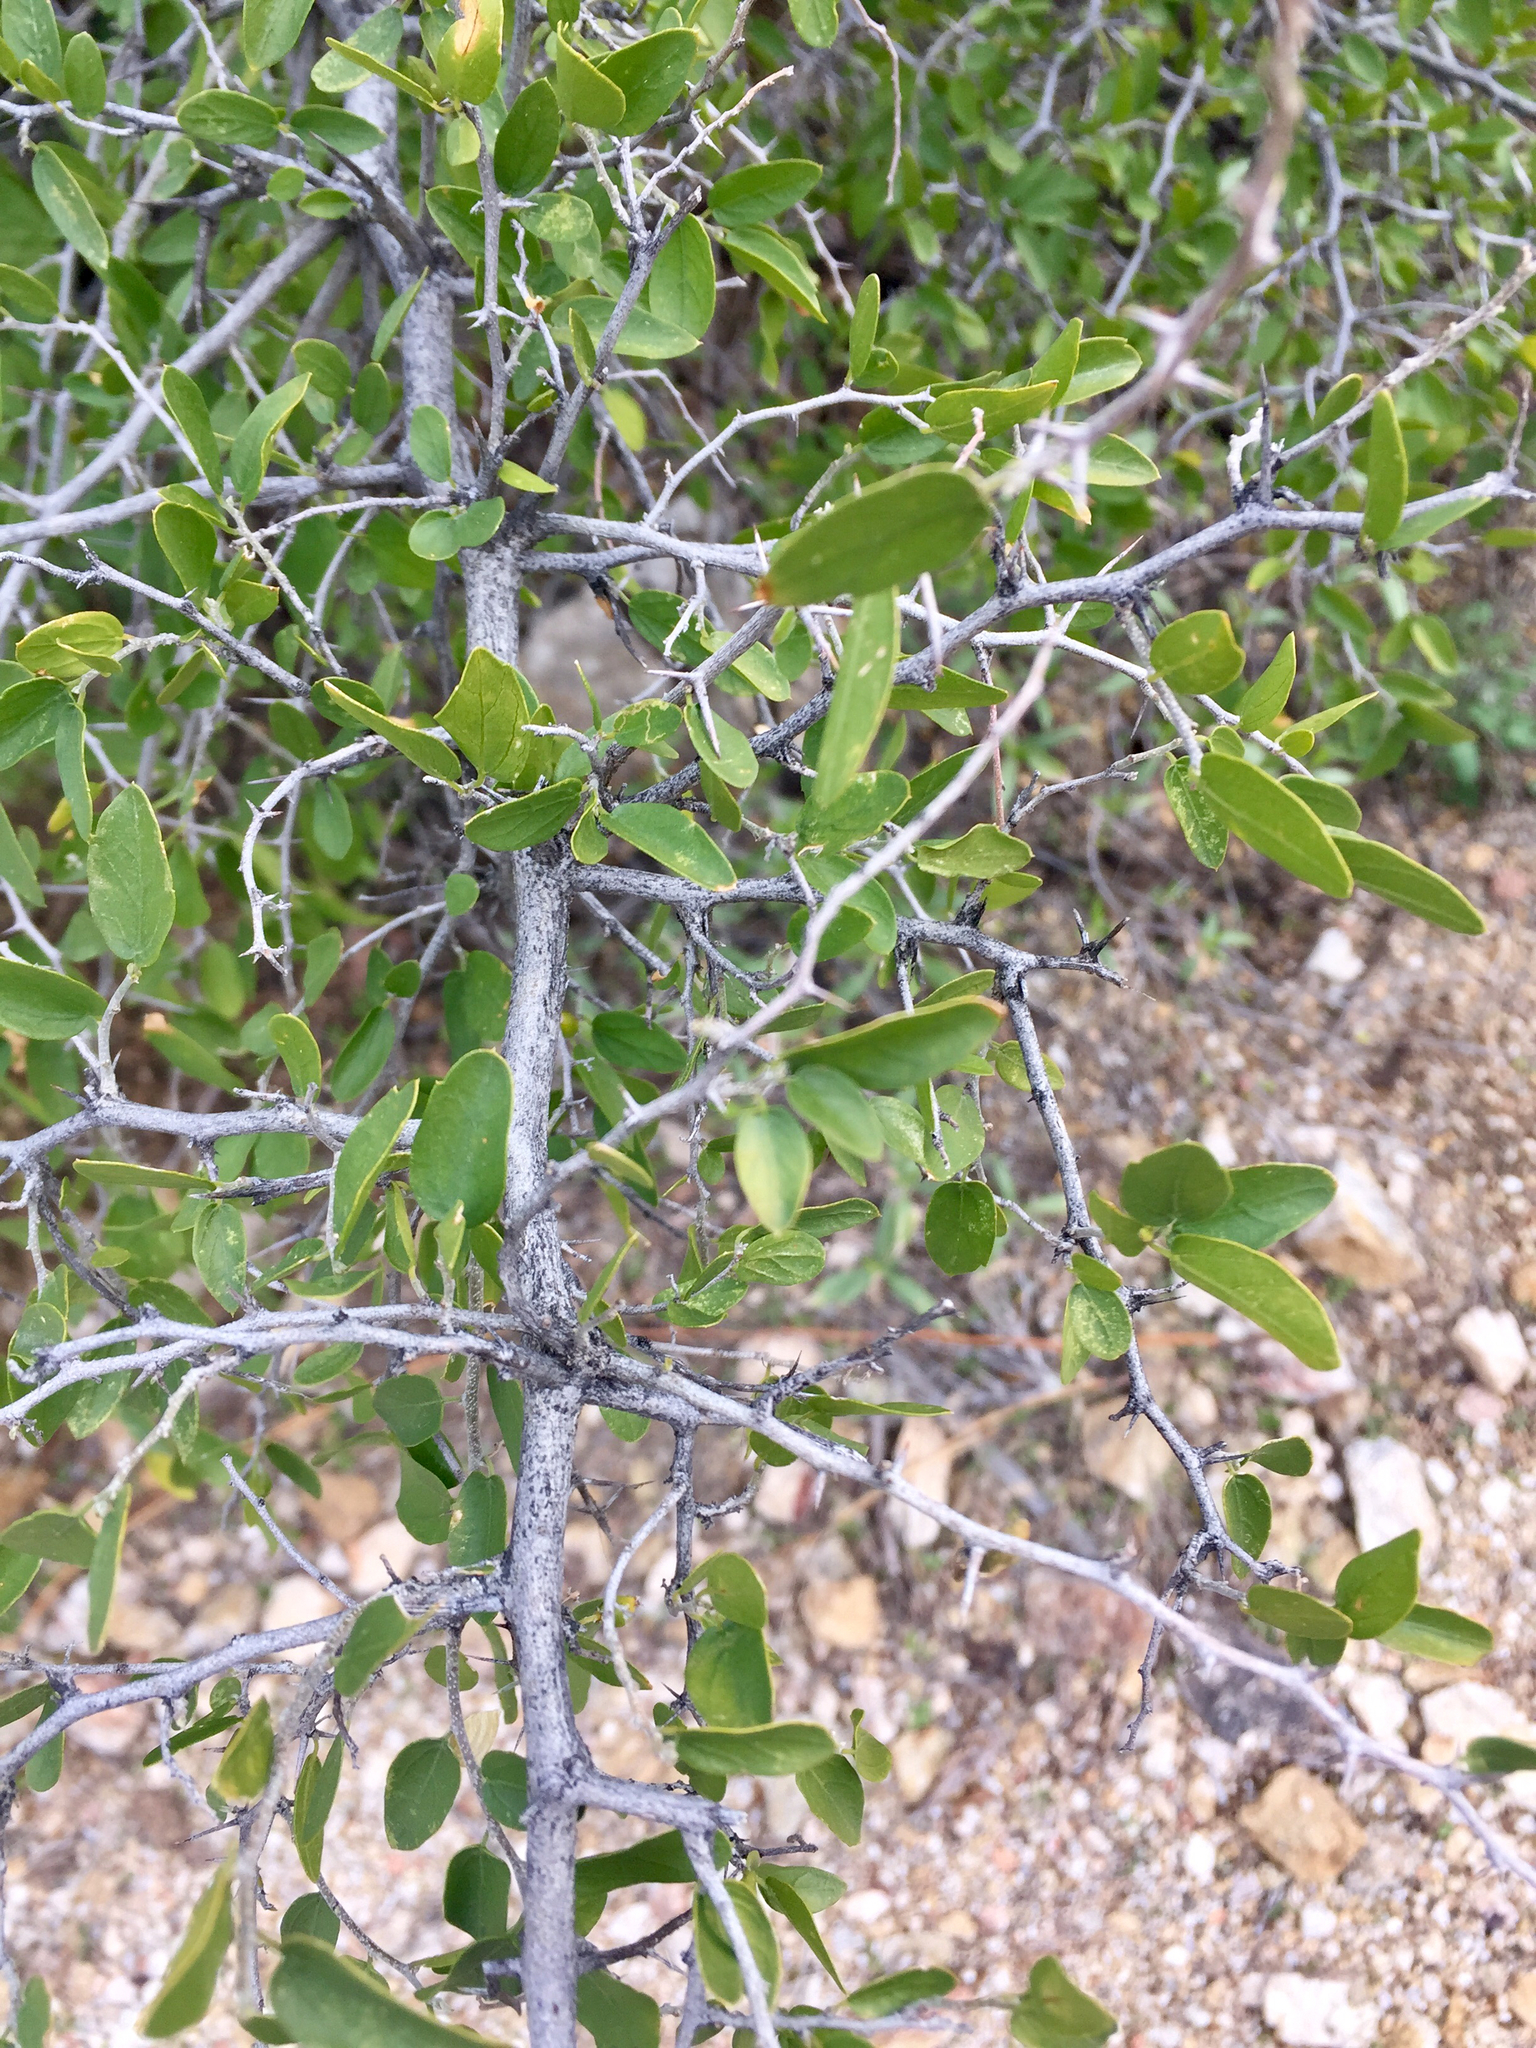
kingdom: Plantae
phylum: Tracheophyta
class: Magnoliopsida
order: Rosales
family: Cannabaceae
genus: Celtis
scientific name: Celtis pallida
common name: Desert hackberry
